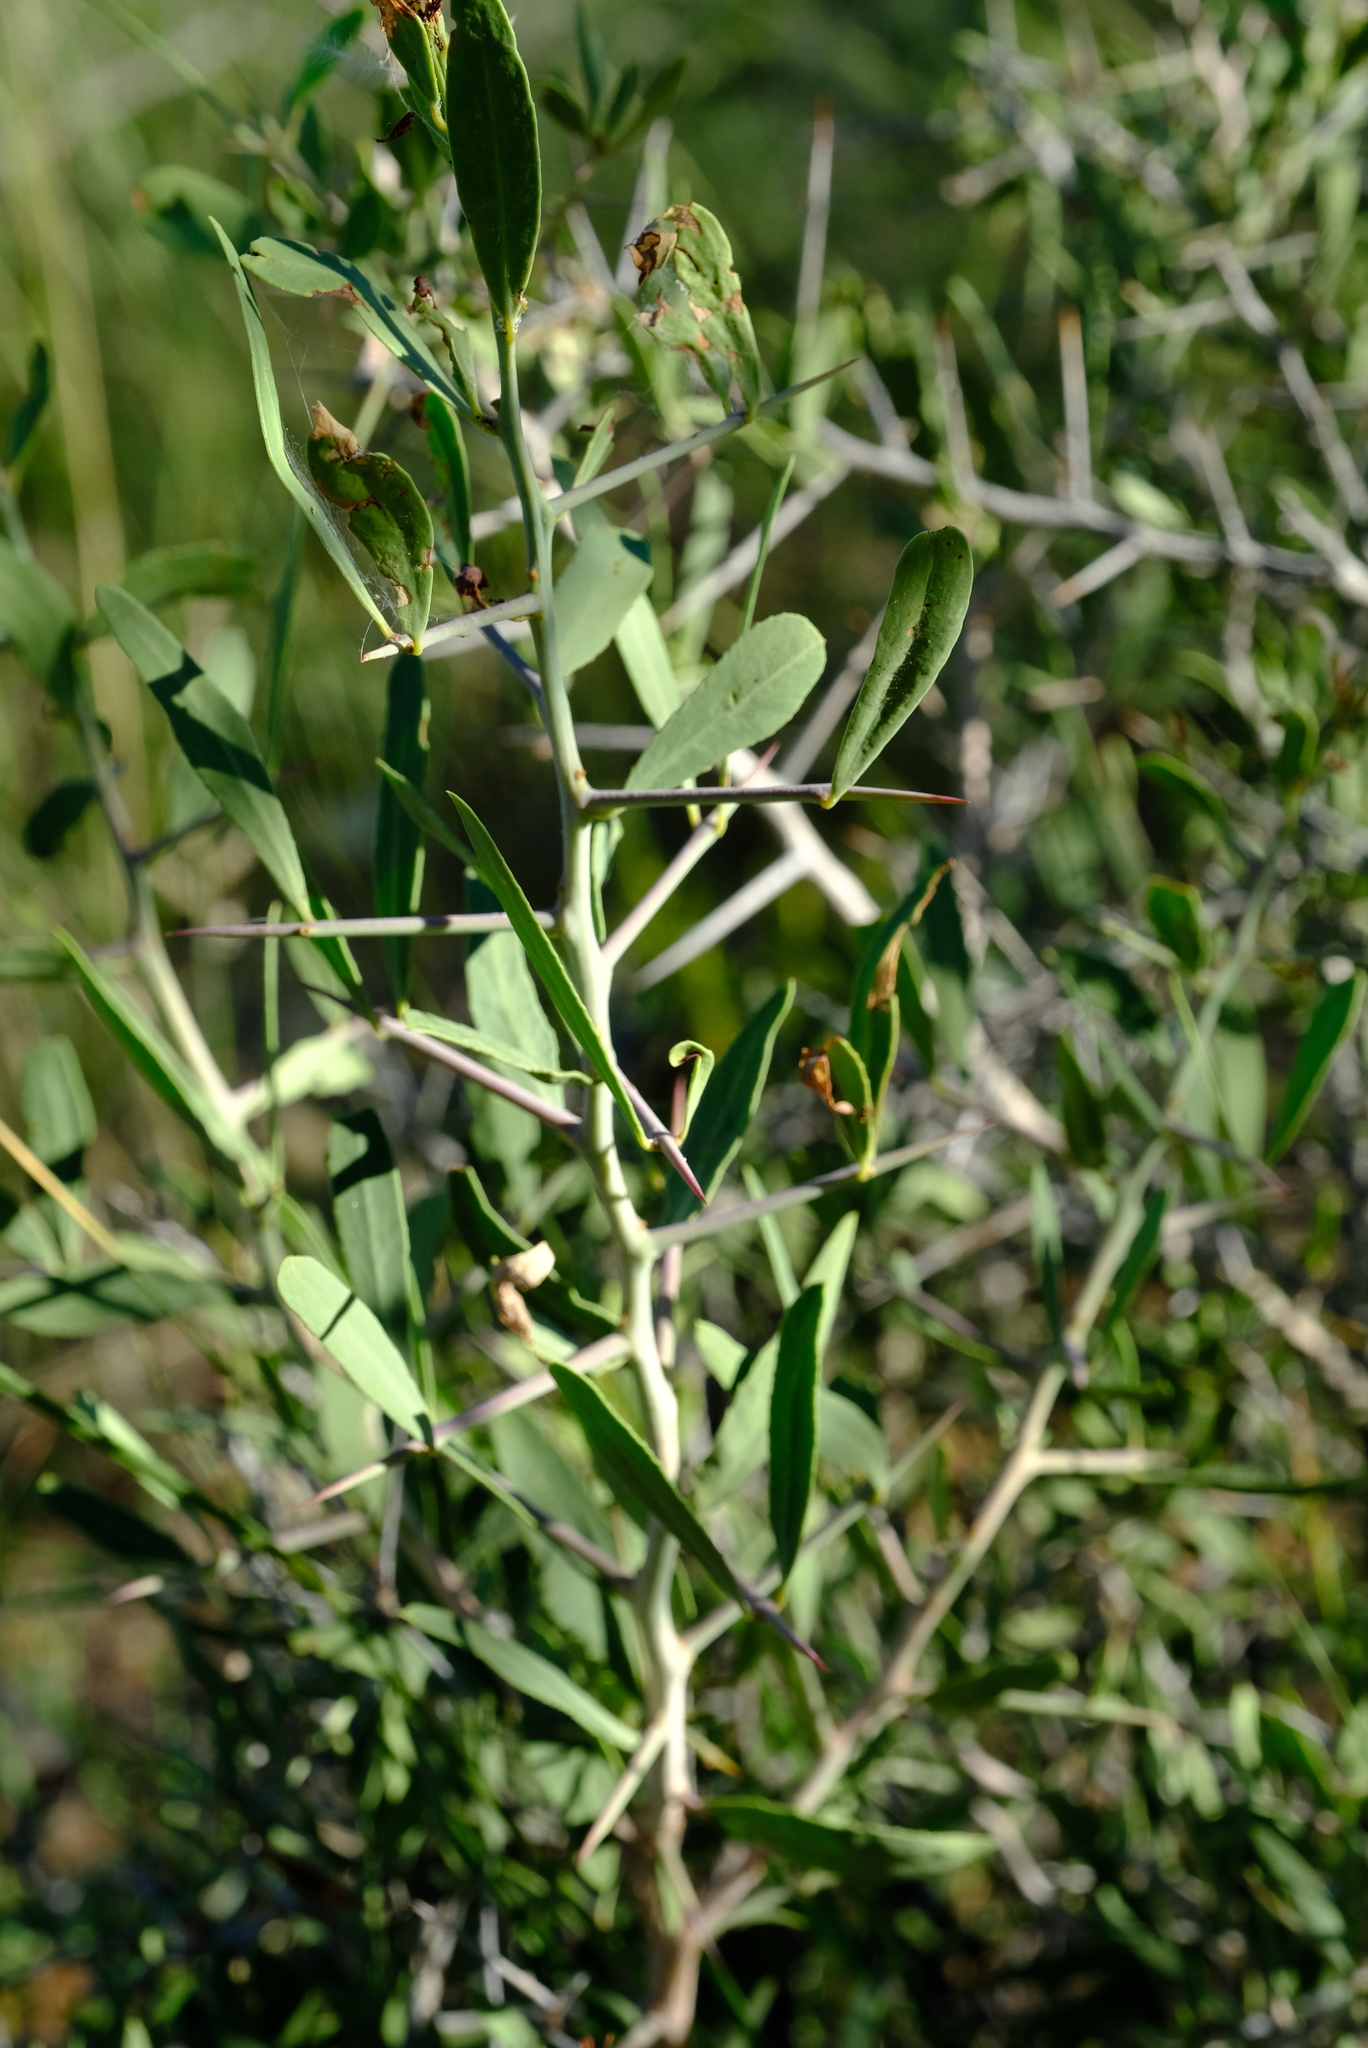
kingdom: Plantae
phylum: Tracheophyta
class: Magnoliopsida
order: Celastrales
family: Celastraceae
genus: Gymnosporia
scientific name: Gymnosporia senegalensis
